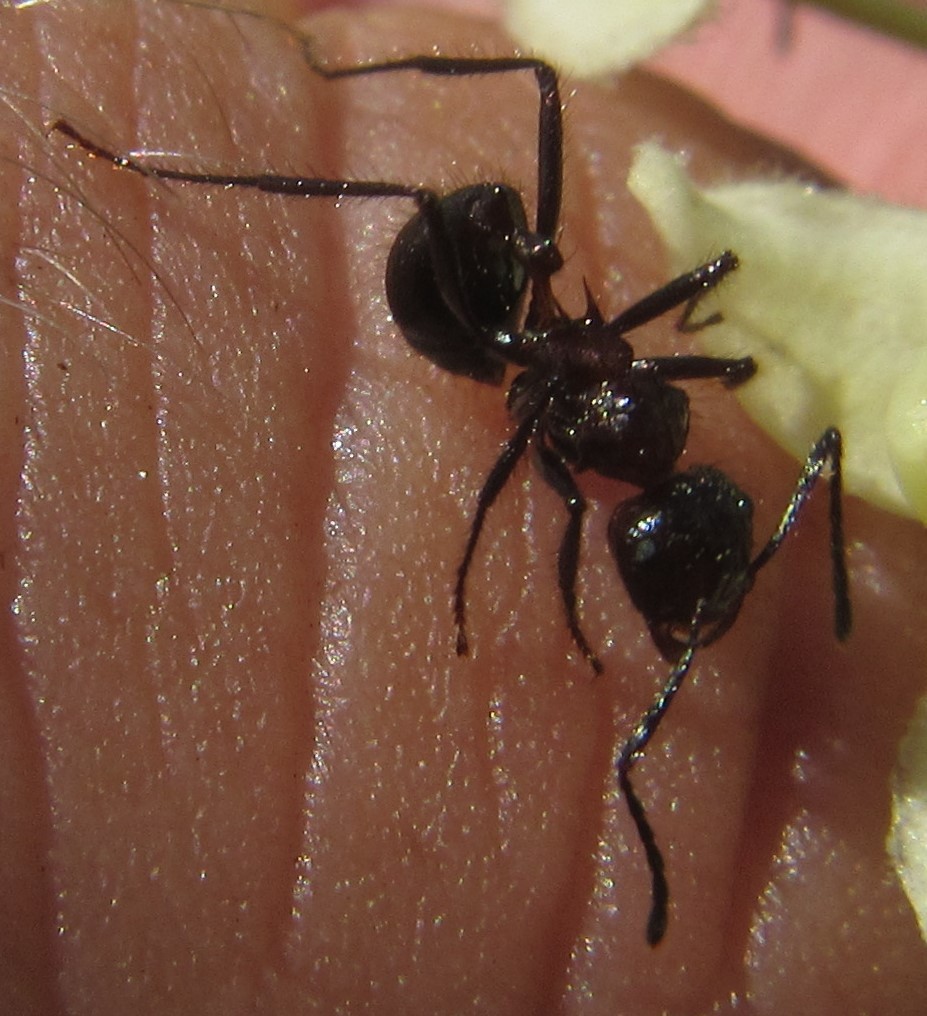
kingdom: Animalia
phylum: Arthropoda
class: Insecta
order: Hymenoptera
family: Formicidae
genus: Myrmicaria
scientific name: Myrmicaria natalensis
